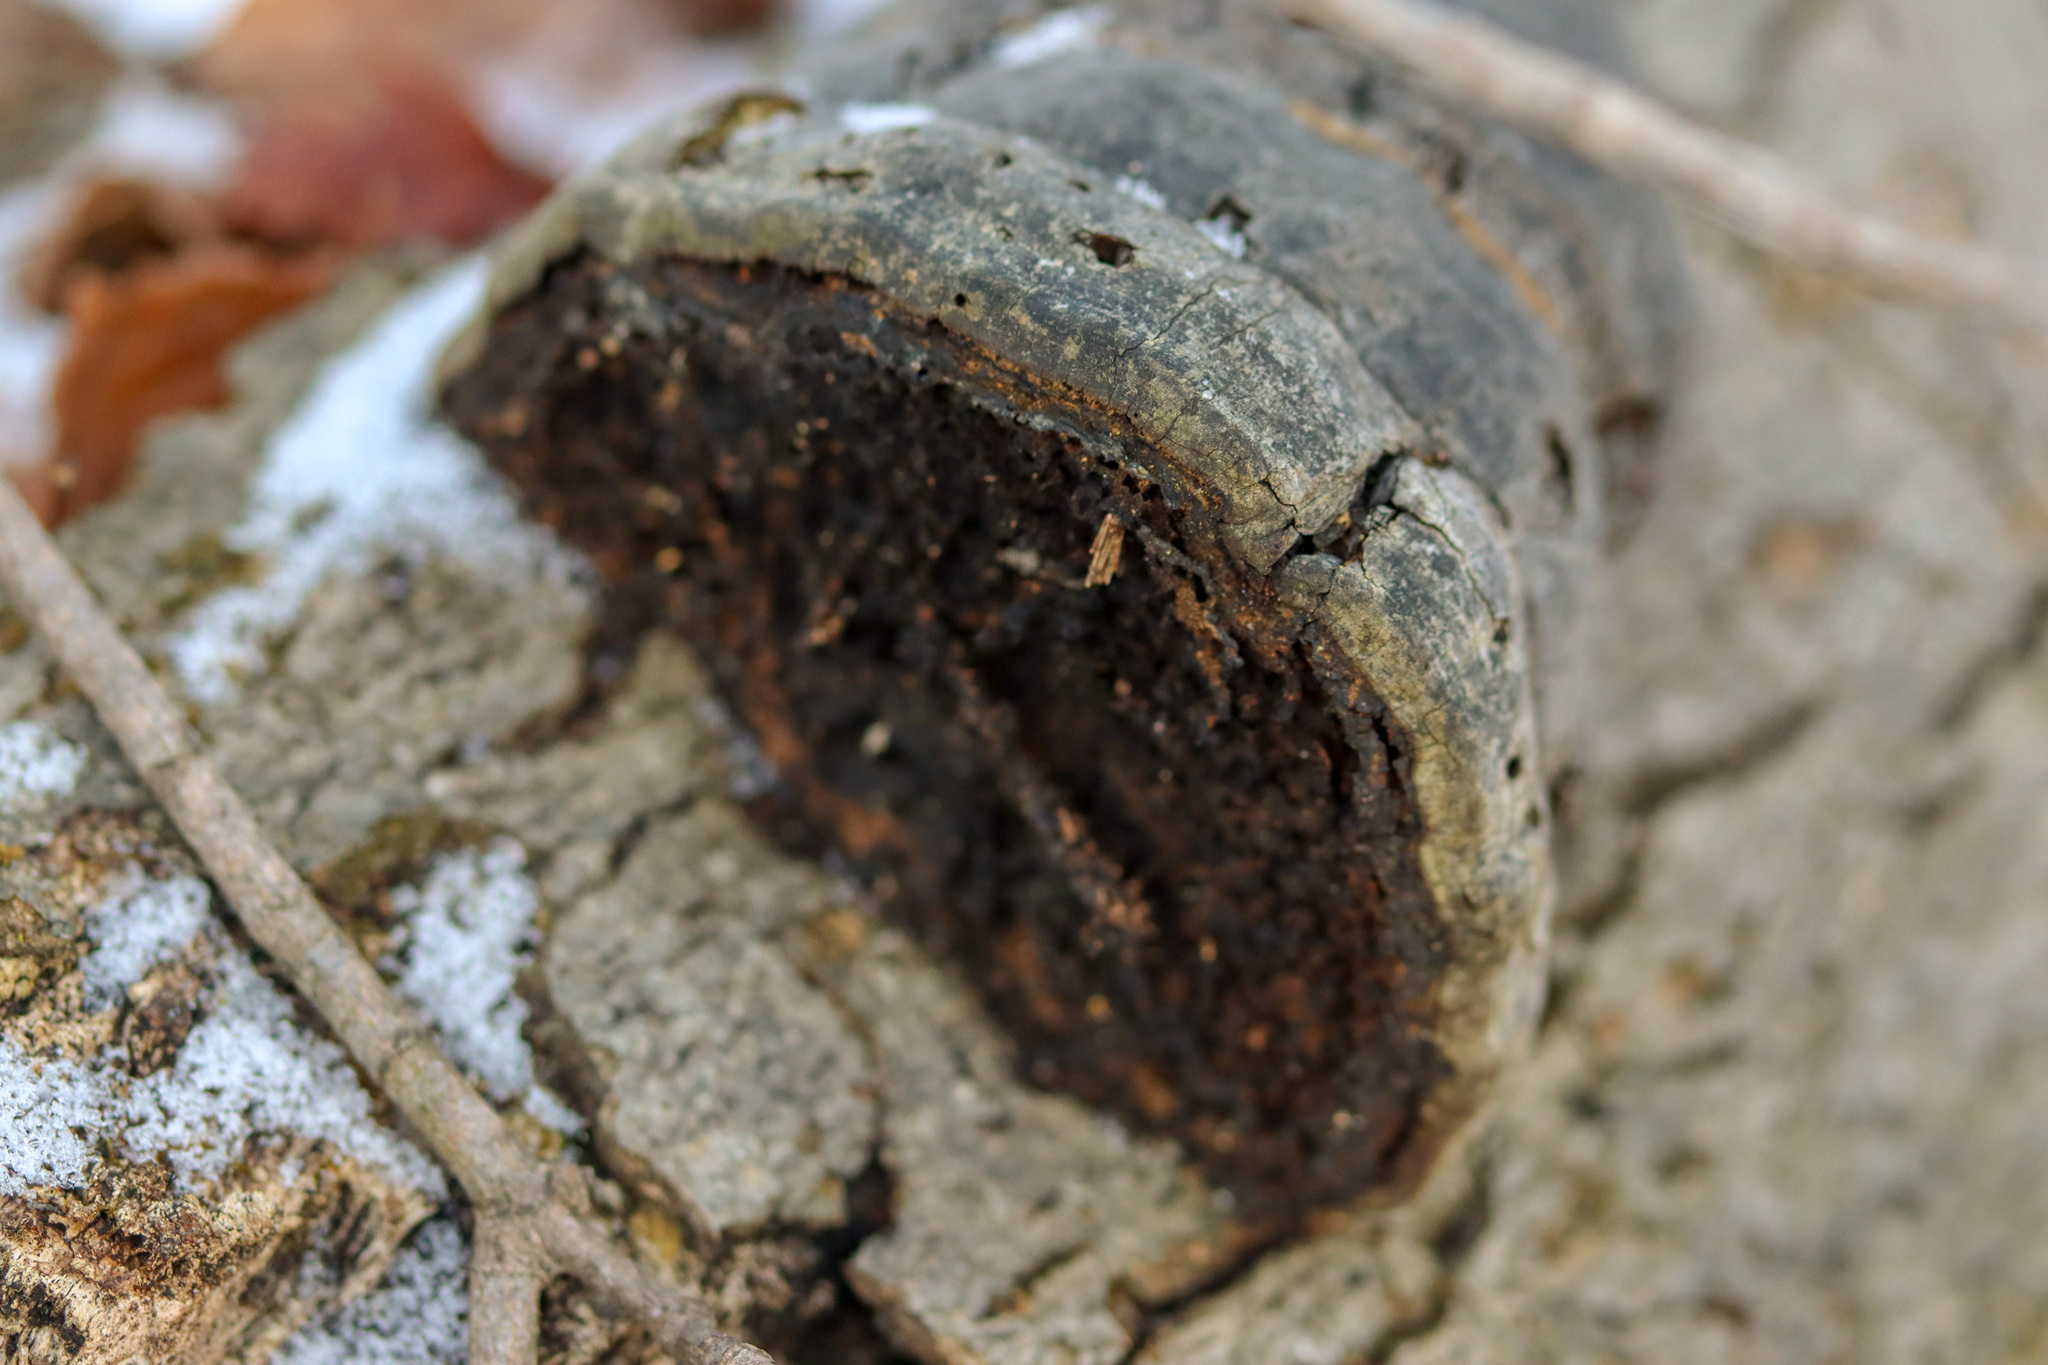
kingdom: Fungi
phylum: Basidiomycota
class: Agaricomycetes
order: Polyporales
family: Polyporaceae
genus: Fomes
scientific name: Fomes fomentarius
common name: Hoof fungus
